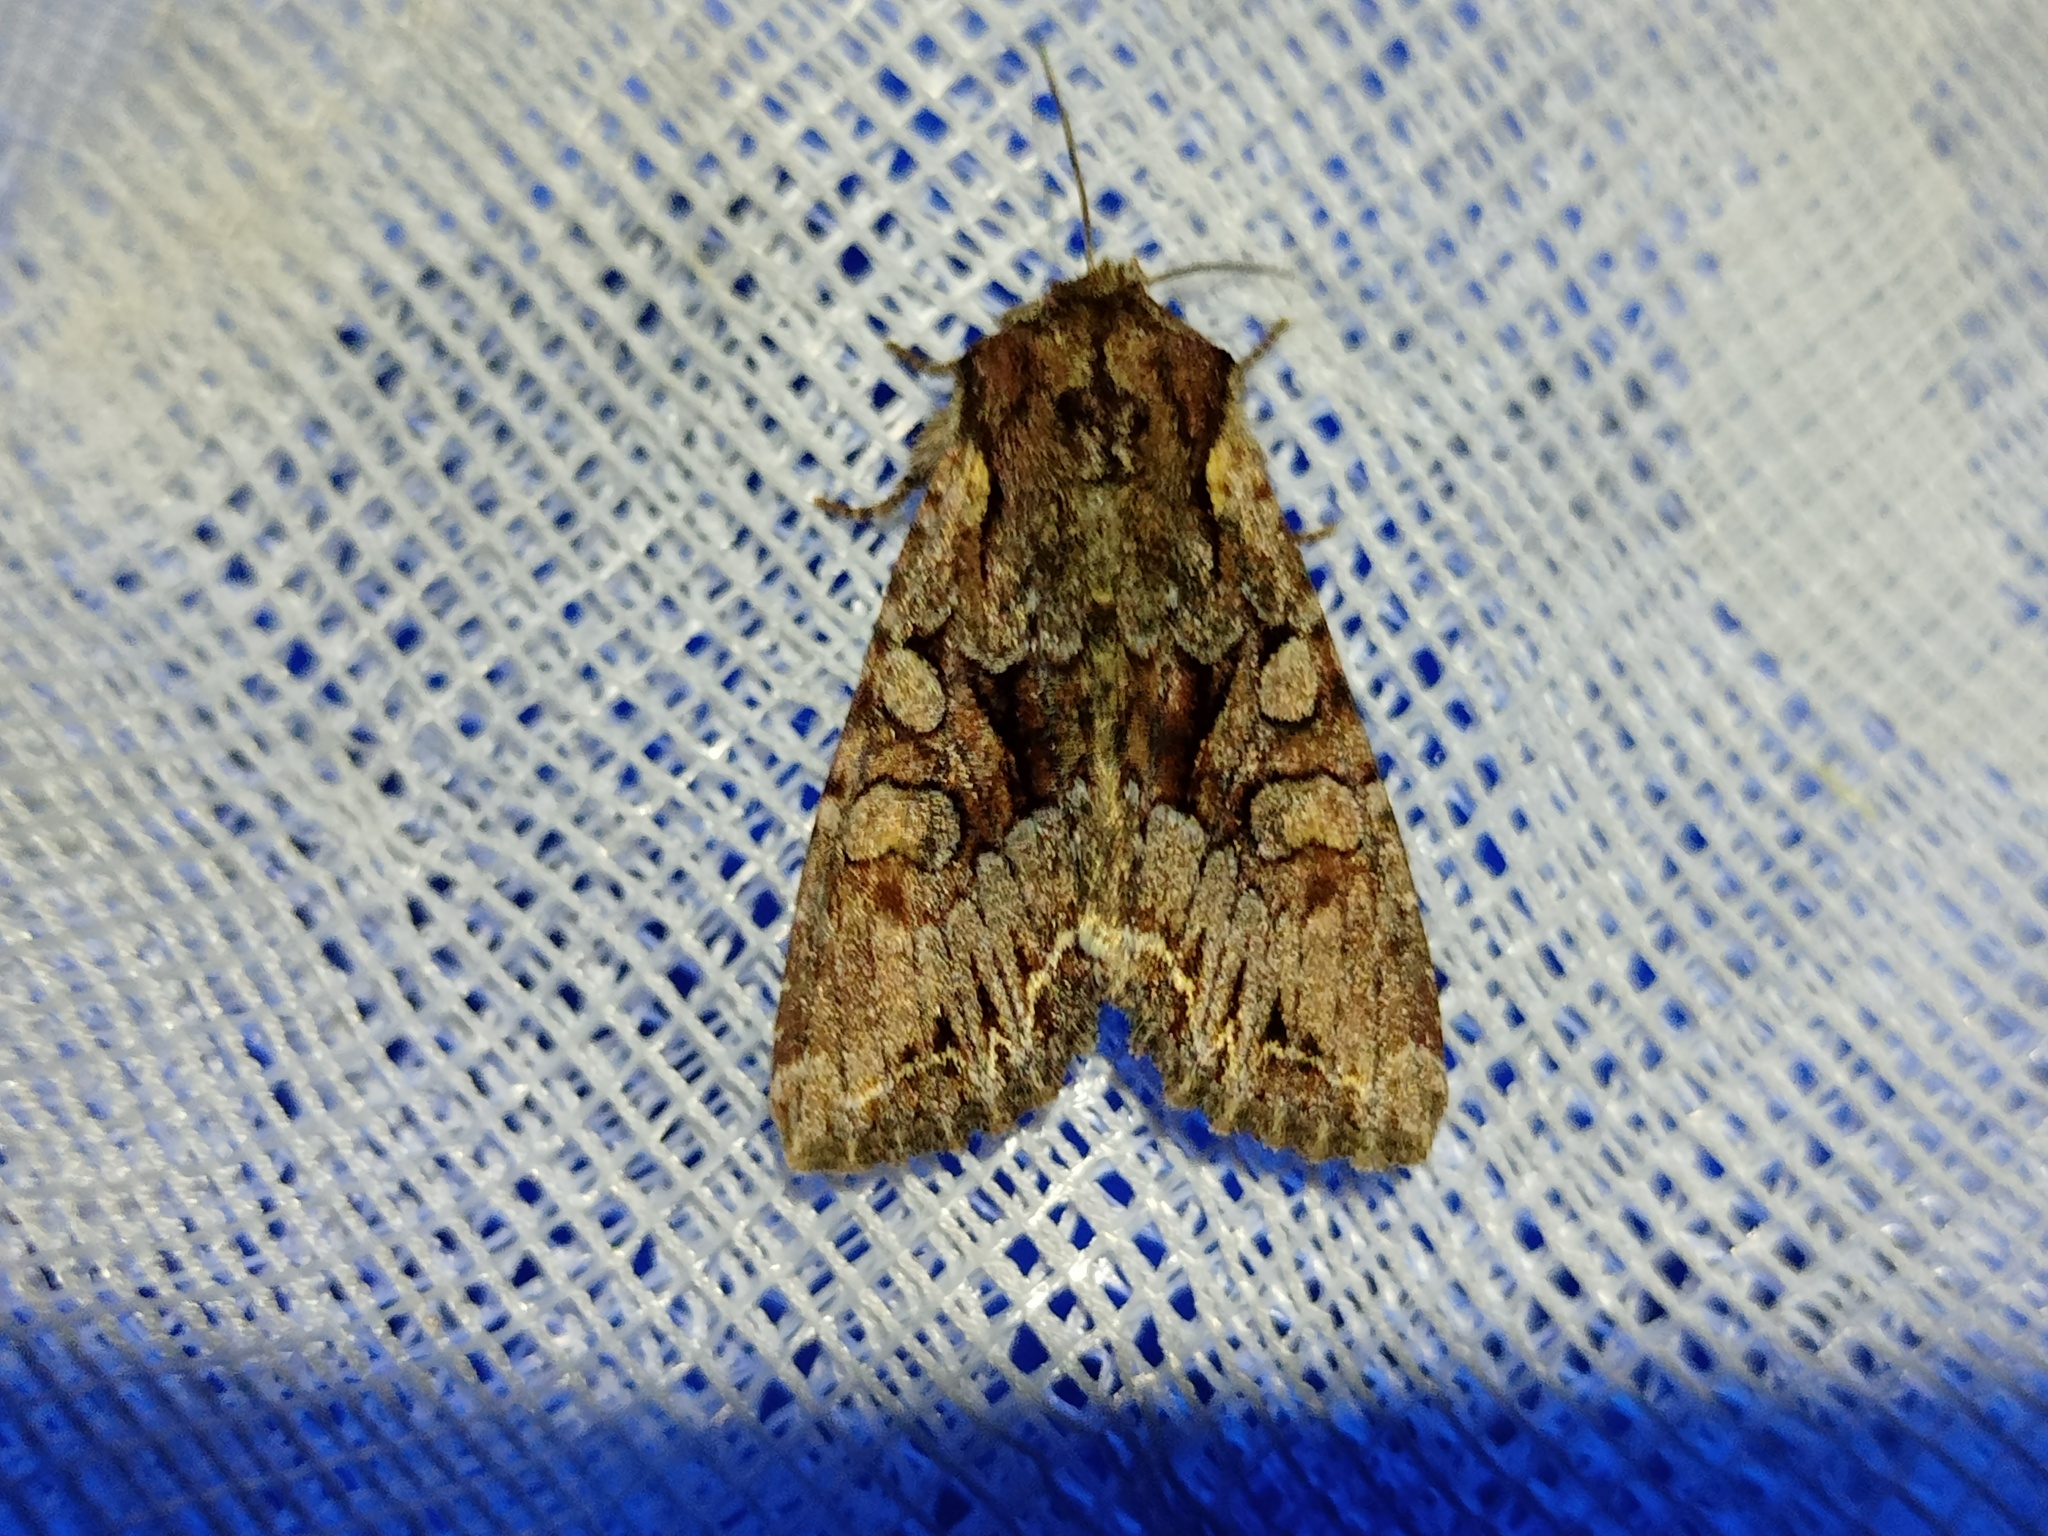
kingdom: Animalia
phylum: Arthropoda
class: Insecta
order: Lepidoptera
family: Noctuidae
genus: Lacanobia
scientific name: Lacanobia thalassina
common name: Pale-shouldered brocade
